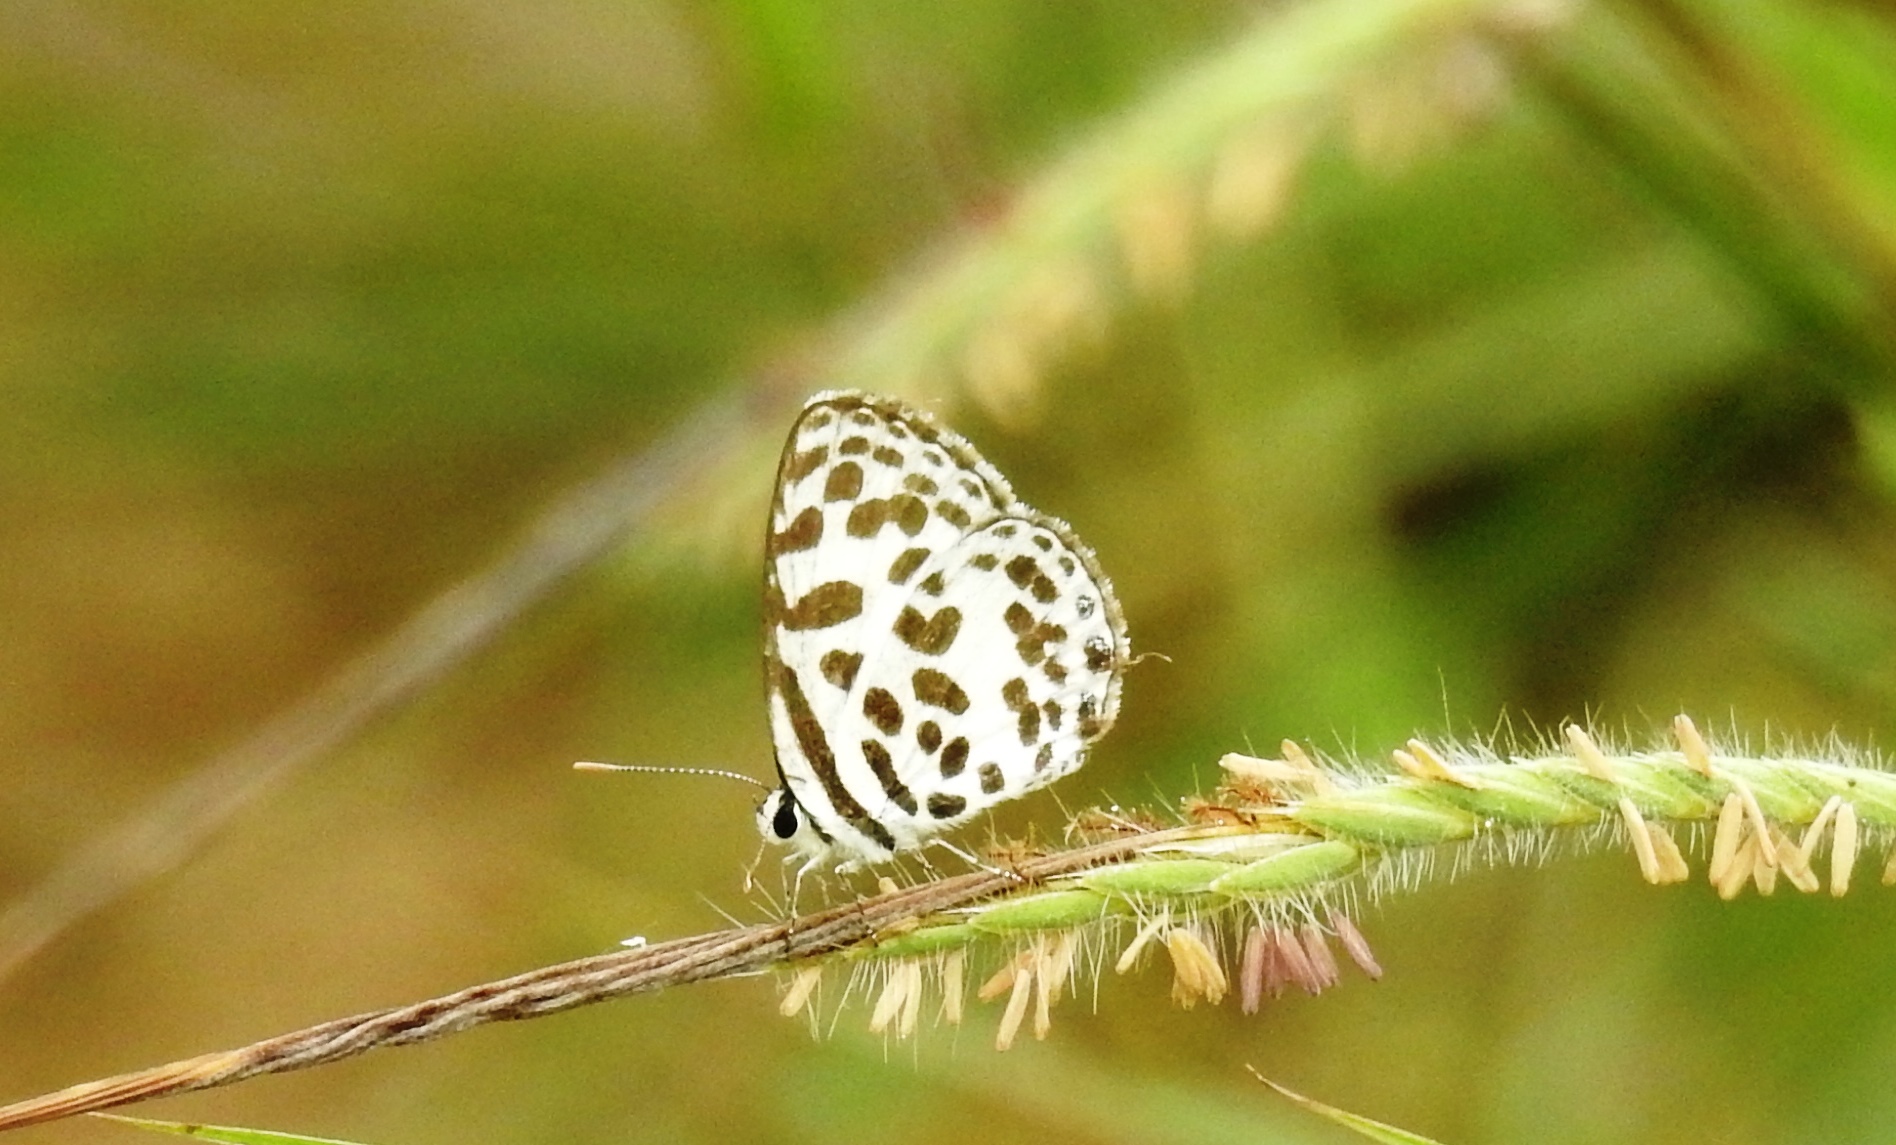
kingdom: Animalia
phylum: Arthropoda
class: Insecta
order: Lepidoptera
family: Lycaenidae
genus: Castalius
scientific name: Castalius rosimon
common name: Common pierrot
